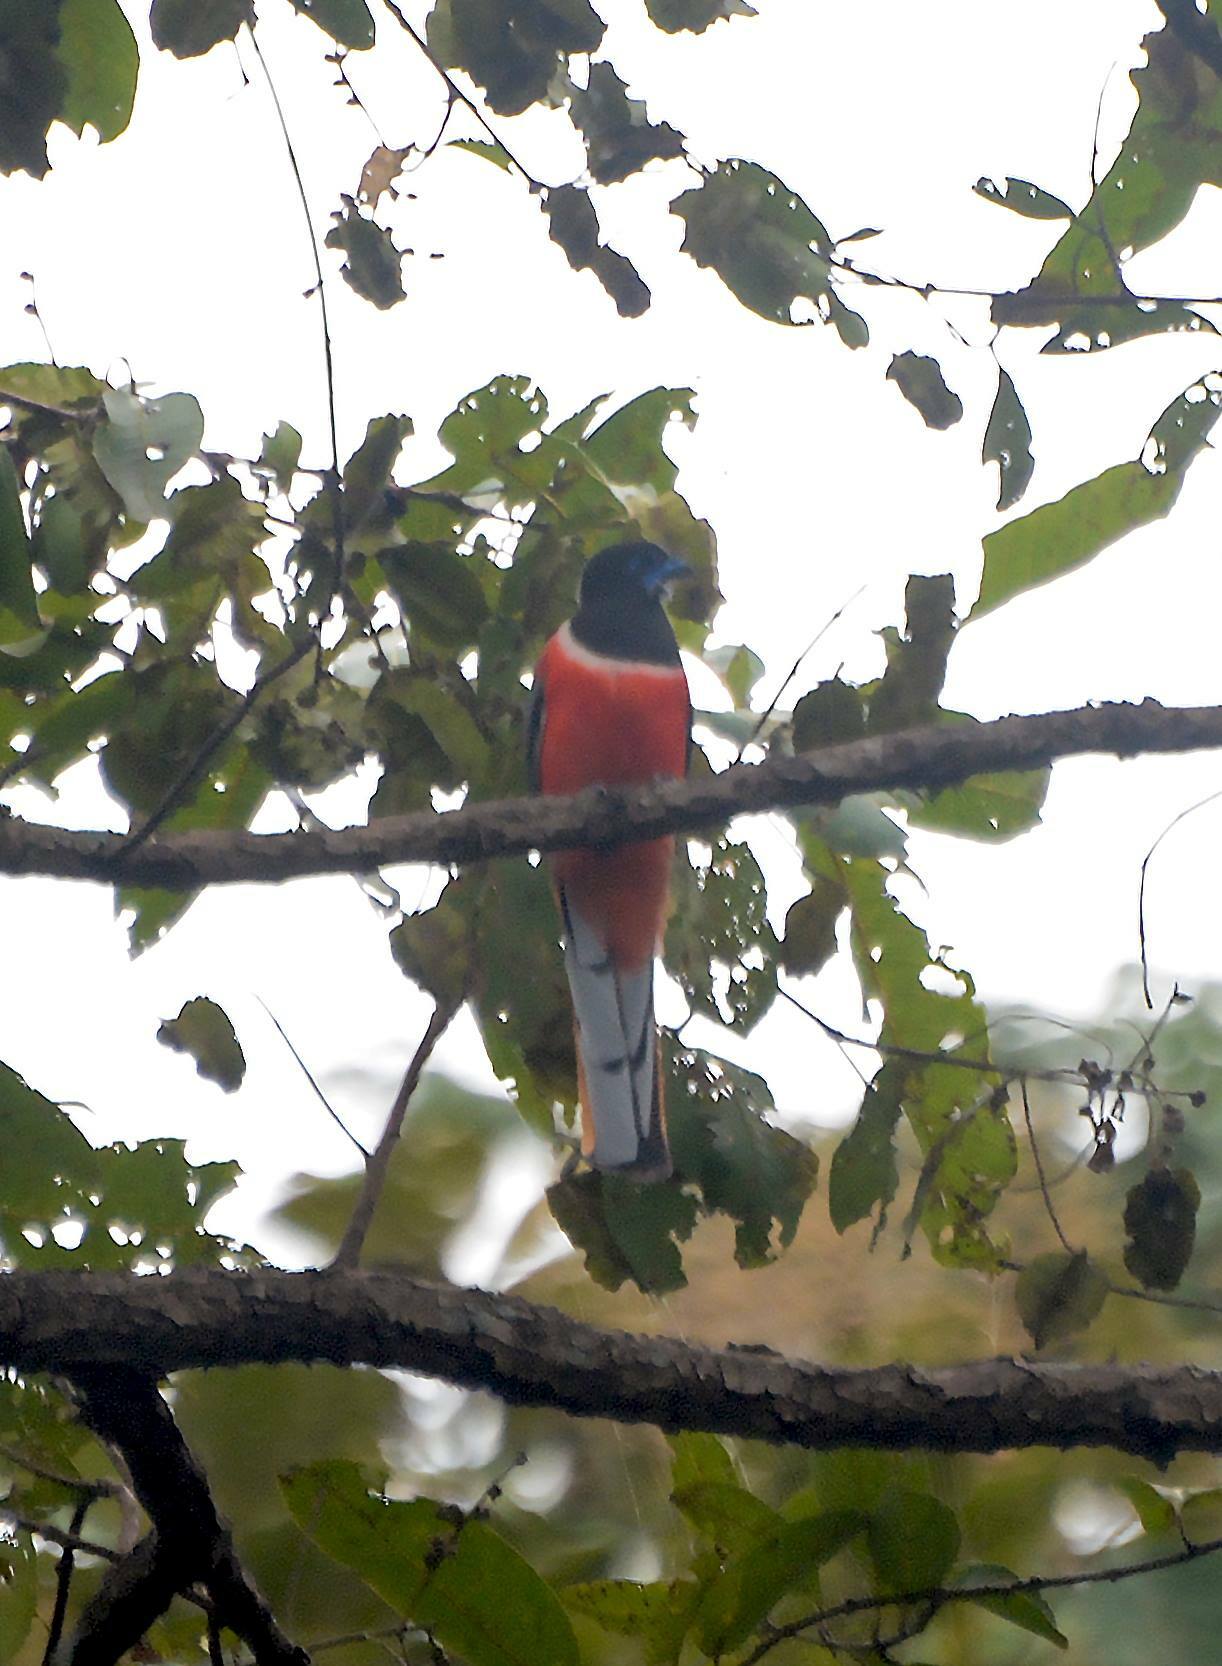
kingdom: Animalia
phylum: Chordata
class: Aves
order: Trogoniformes
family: Trogonidae
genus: Harpactes
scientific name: Harpactes fasciatus
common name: Malabar trogon
